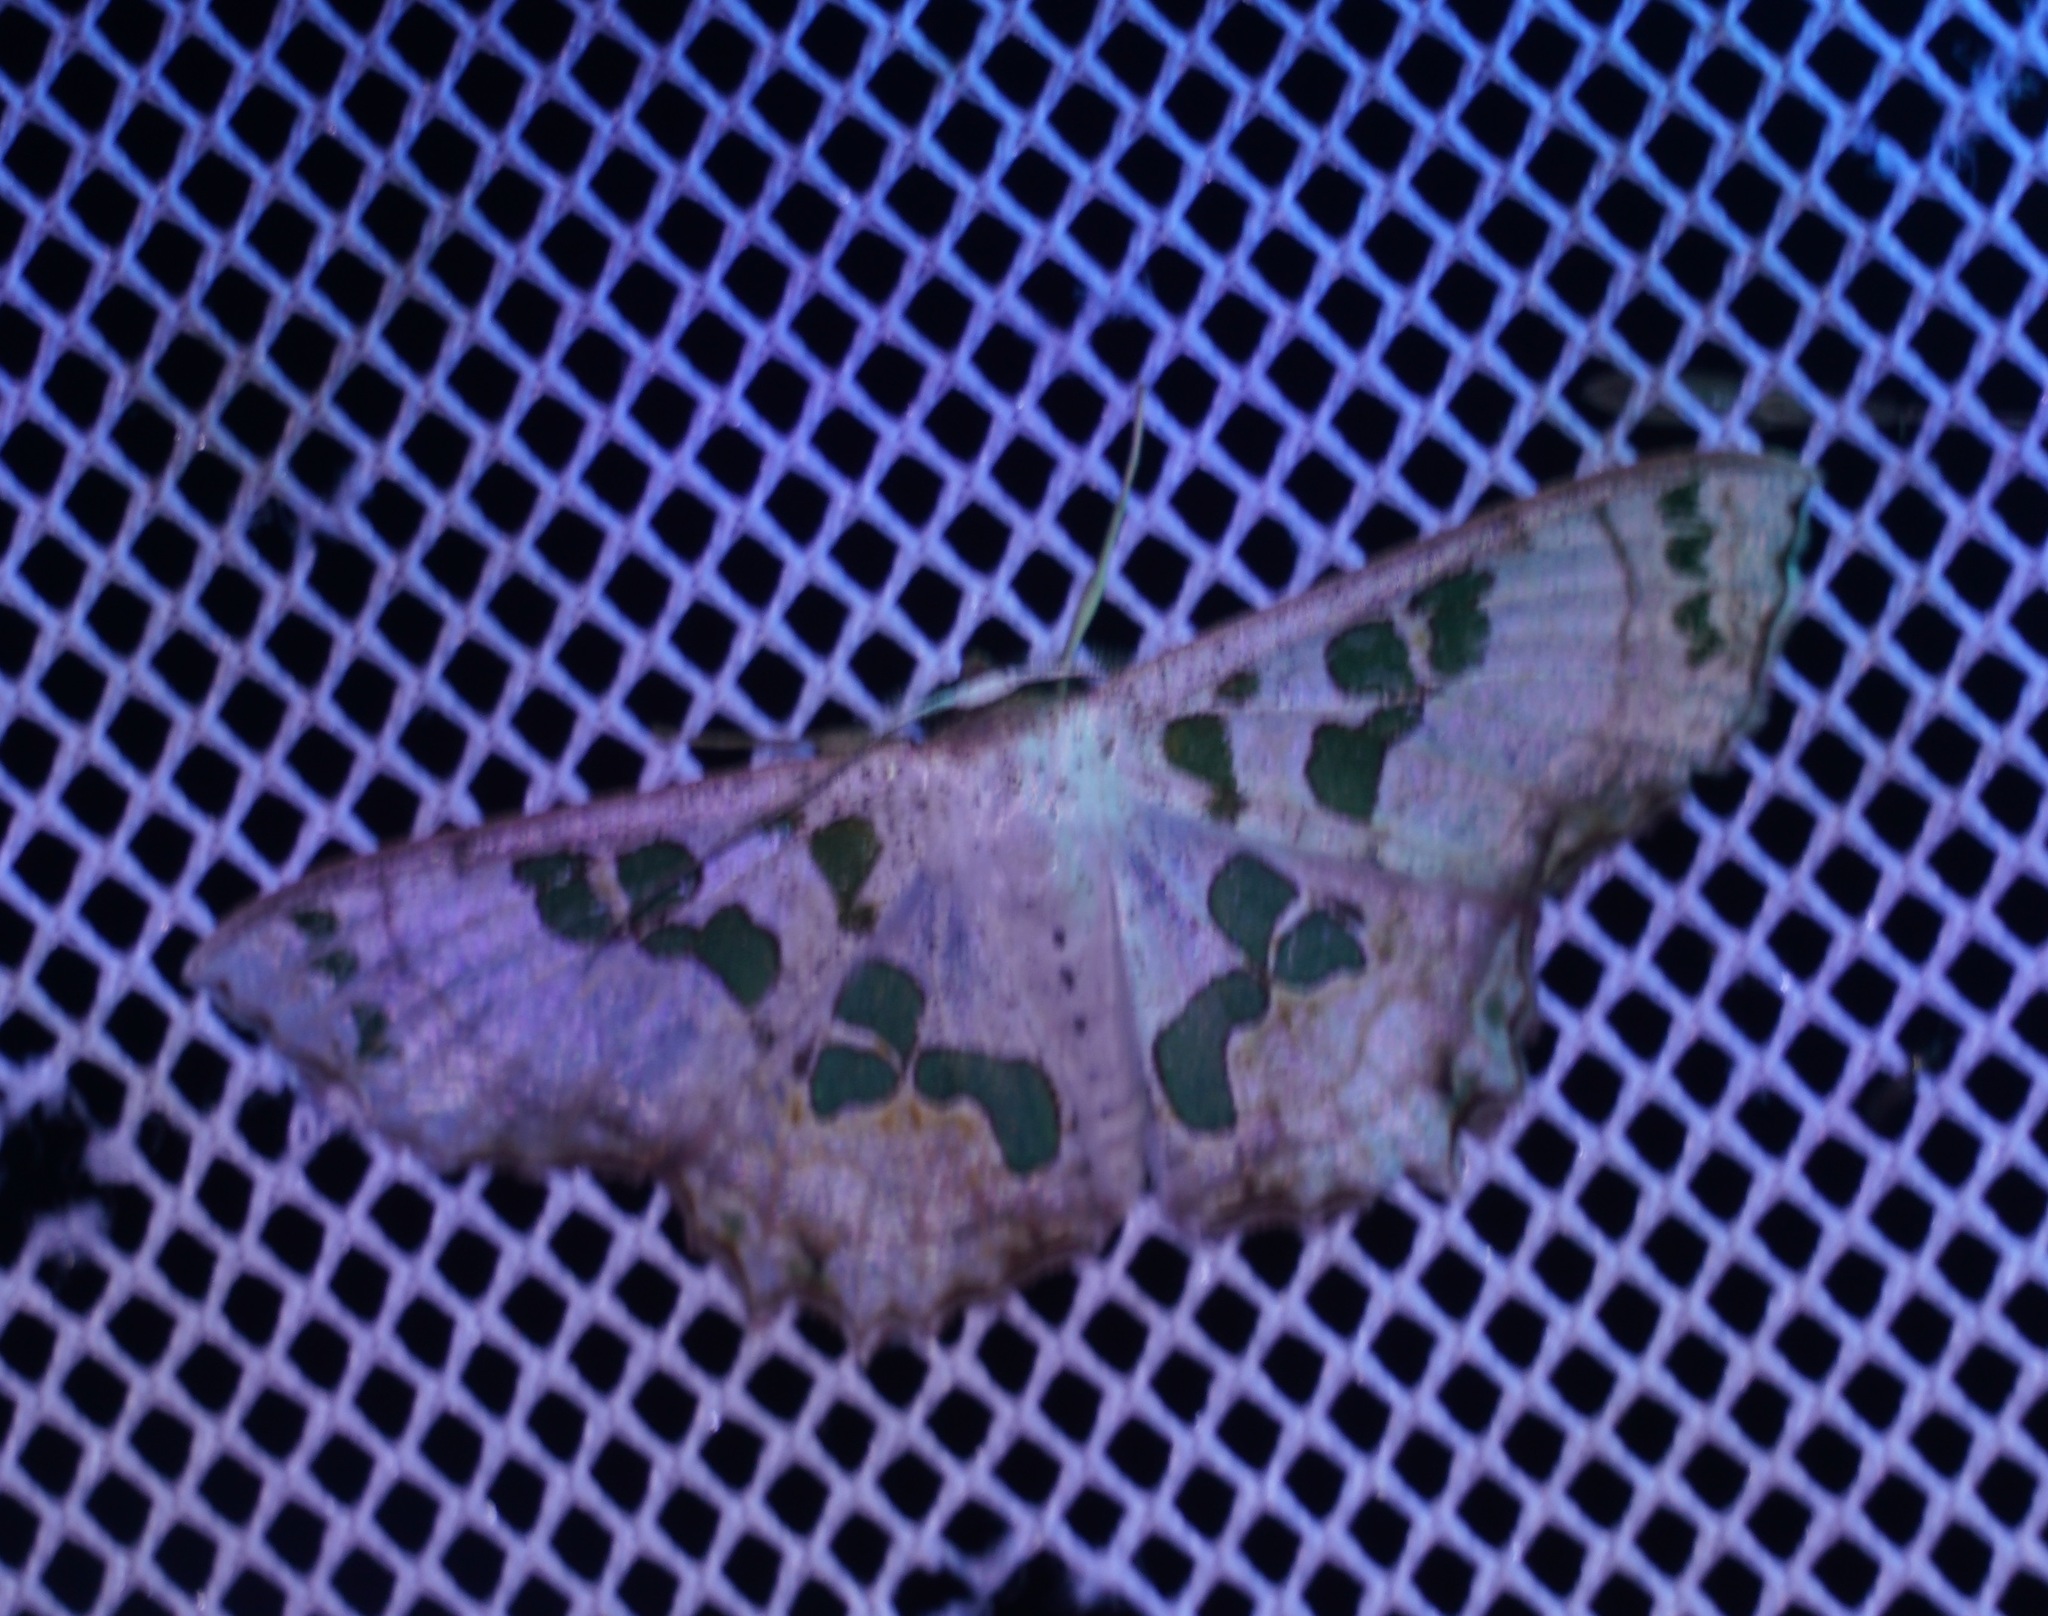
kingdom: Animalia
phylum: Arthropoda
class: Insecta
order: Lepidoptera
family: Geometridae
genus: Scopula
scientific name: Scopula parvimacula
